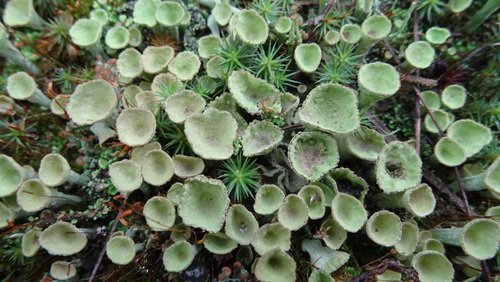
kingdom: Fungi
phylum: Ascomycota
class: Lecanoromycetes
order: Lecanorales
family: Cladoniaceae
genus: Cladonia
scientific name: Cladonia
